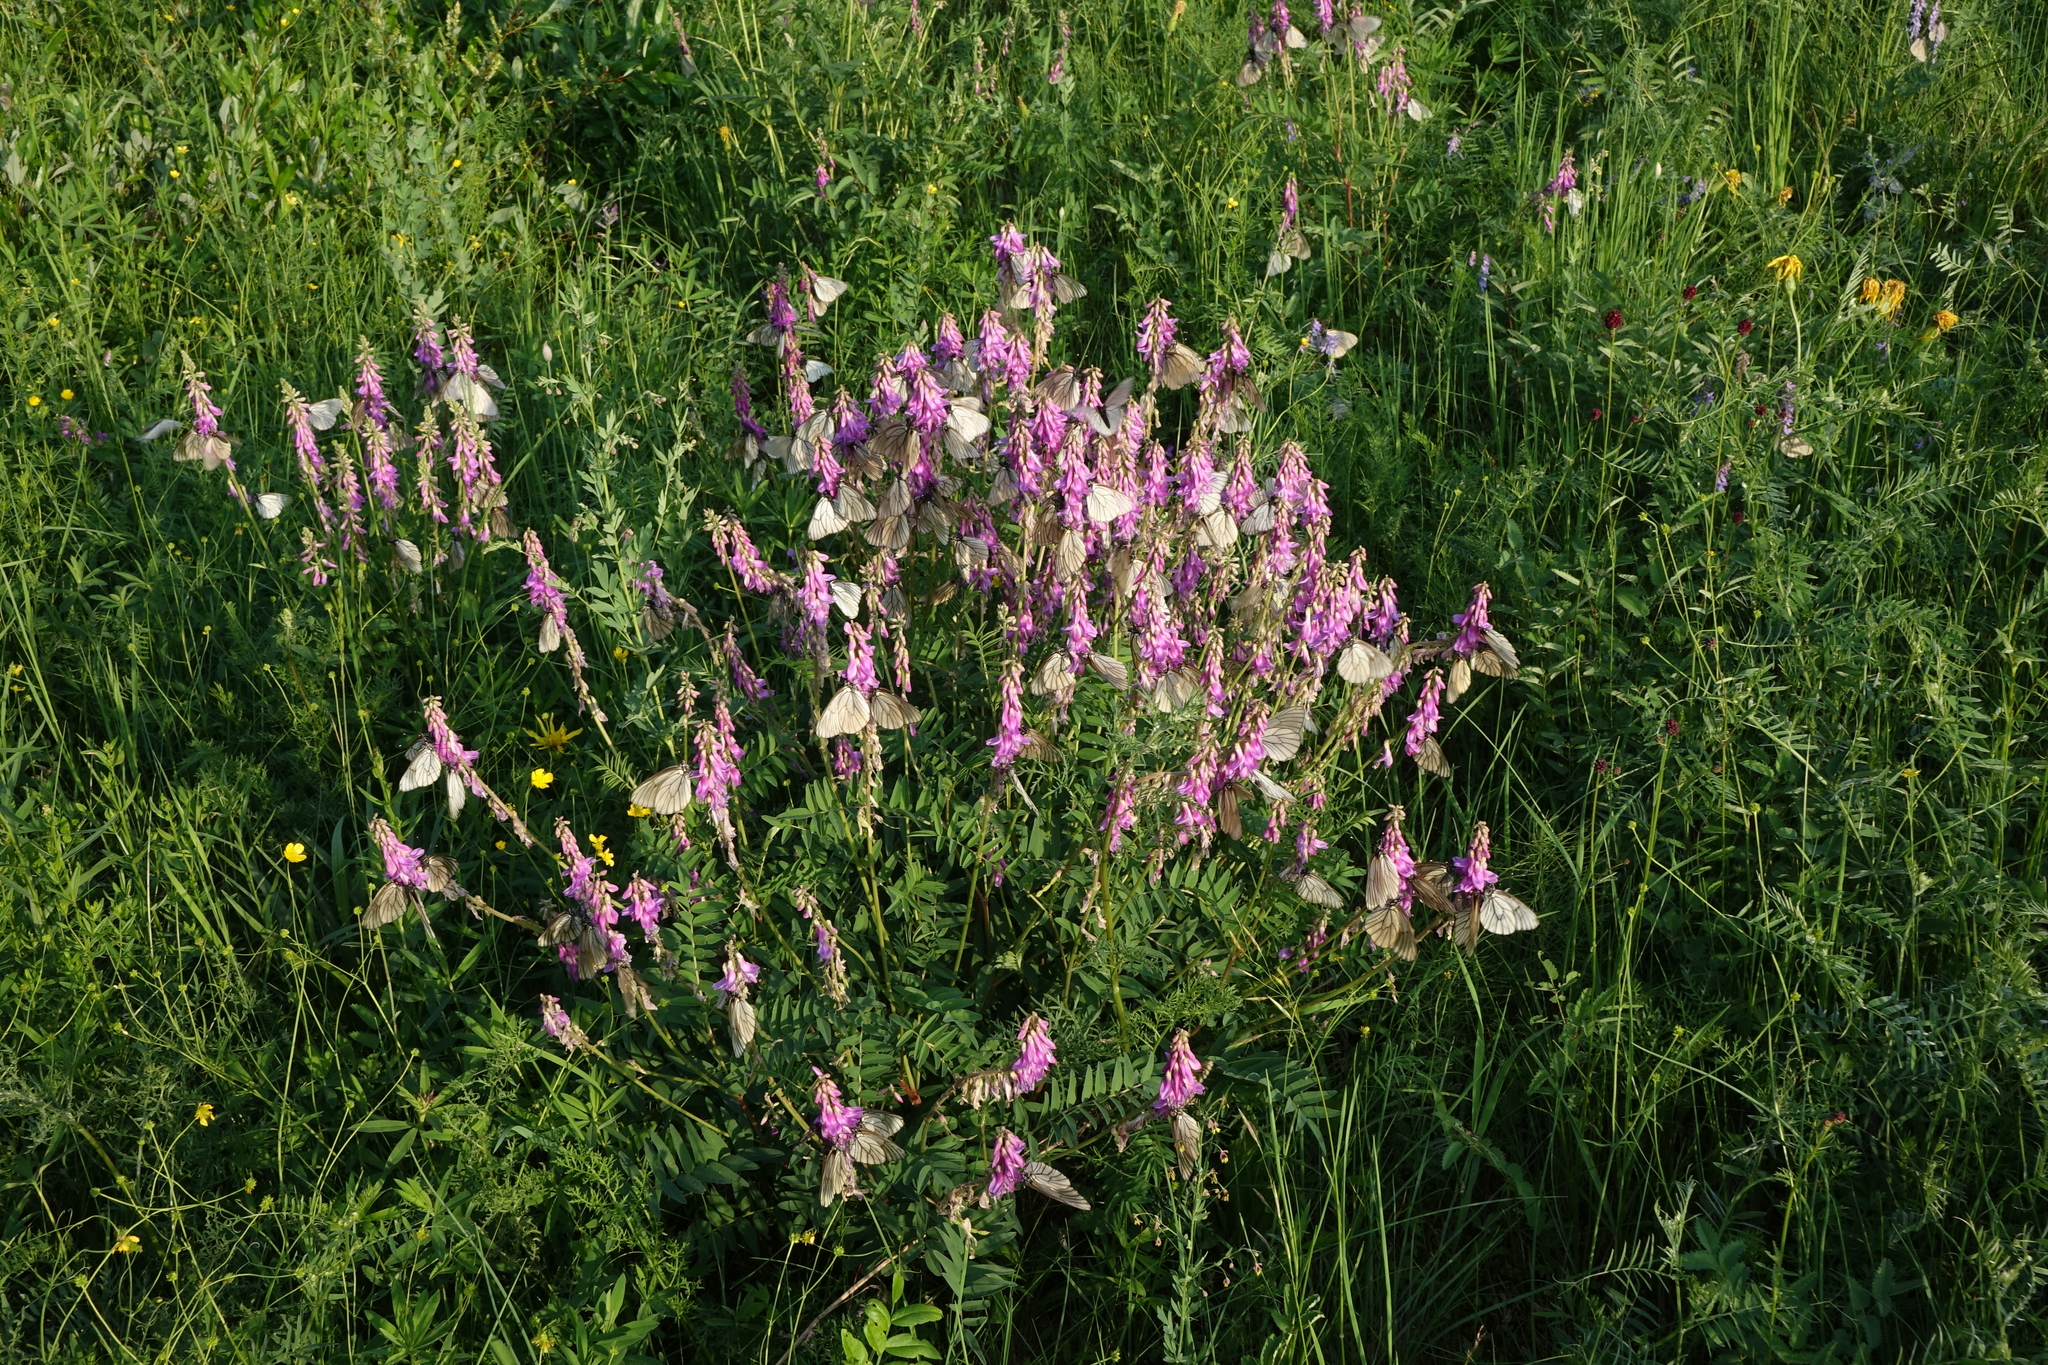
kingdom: Plantae
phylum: Tracheophyta
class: Magnoliopsida
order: Fabales
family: Fabaceae
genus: Hedysarum
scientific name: Hedysarum branthii
